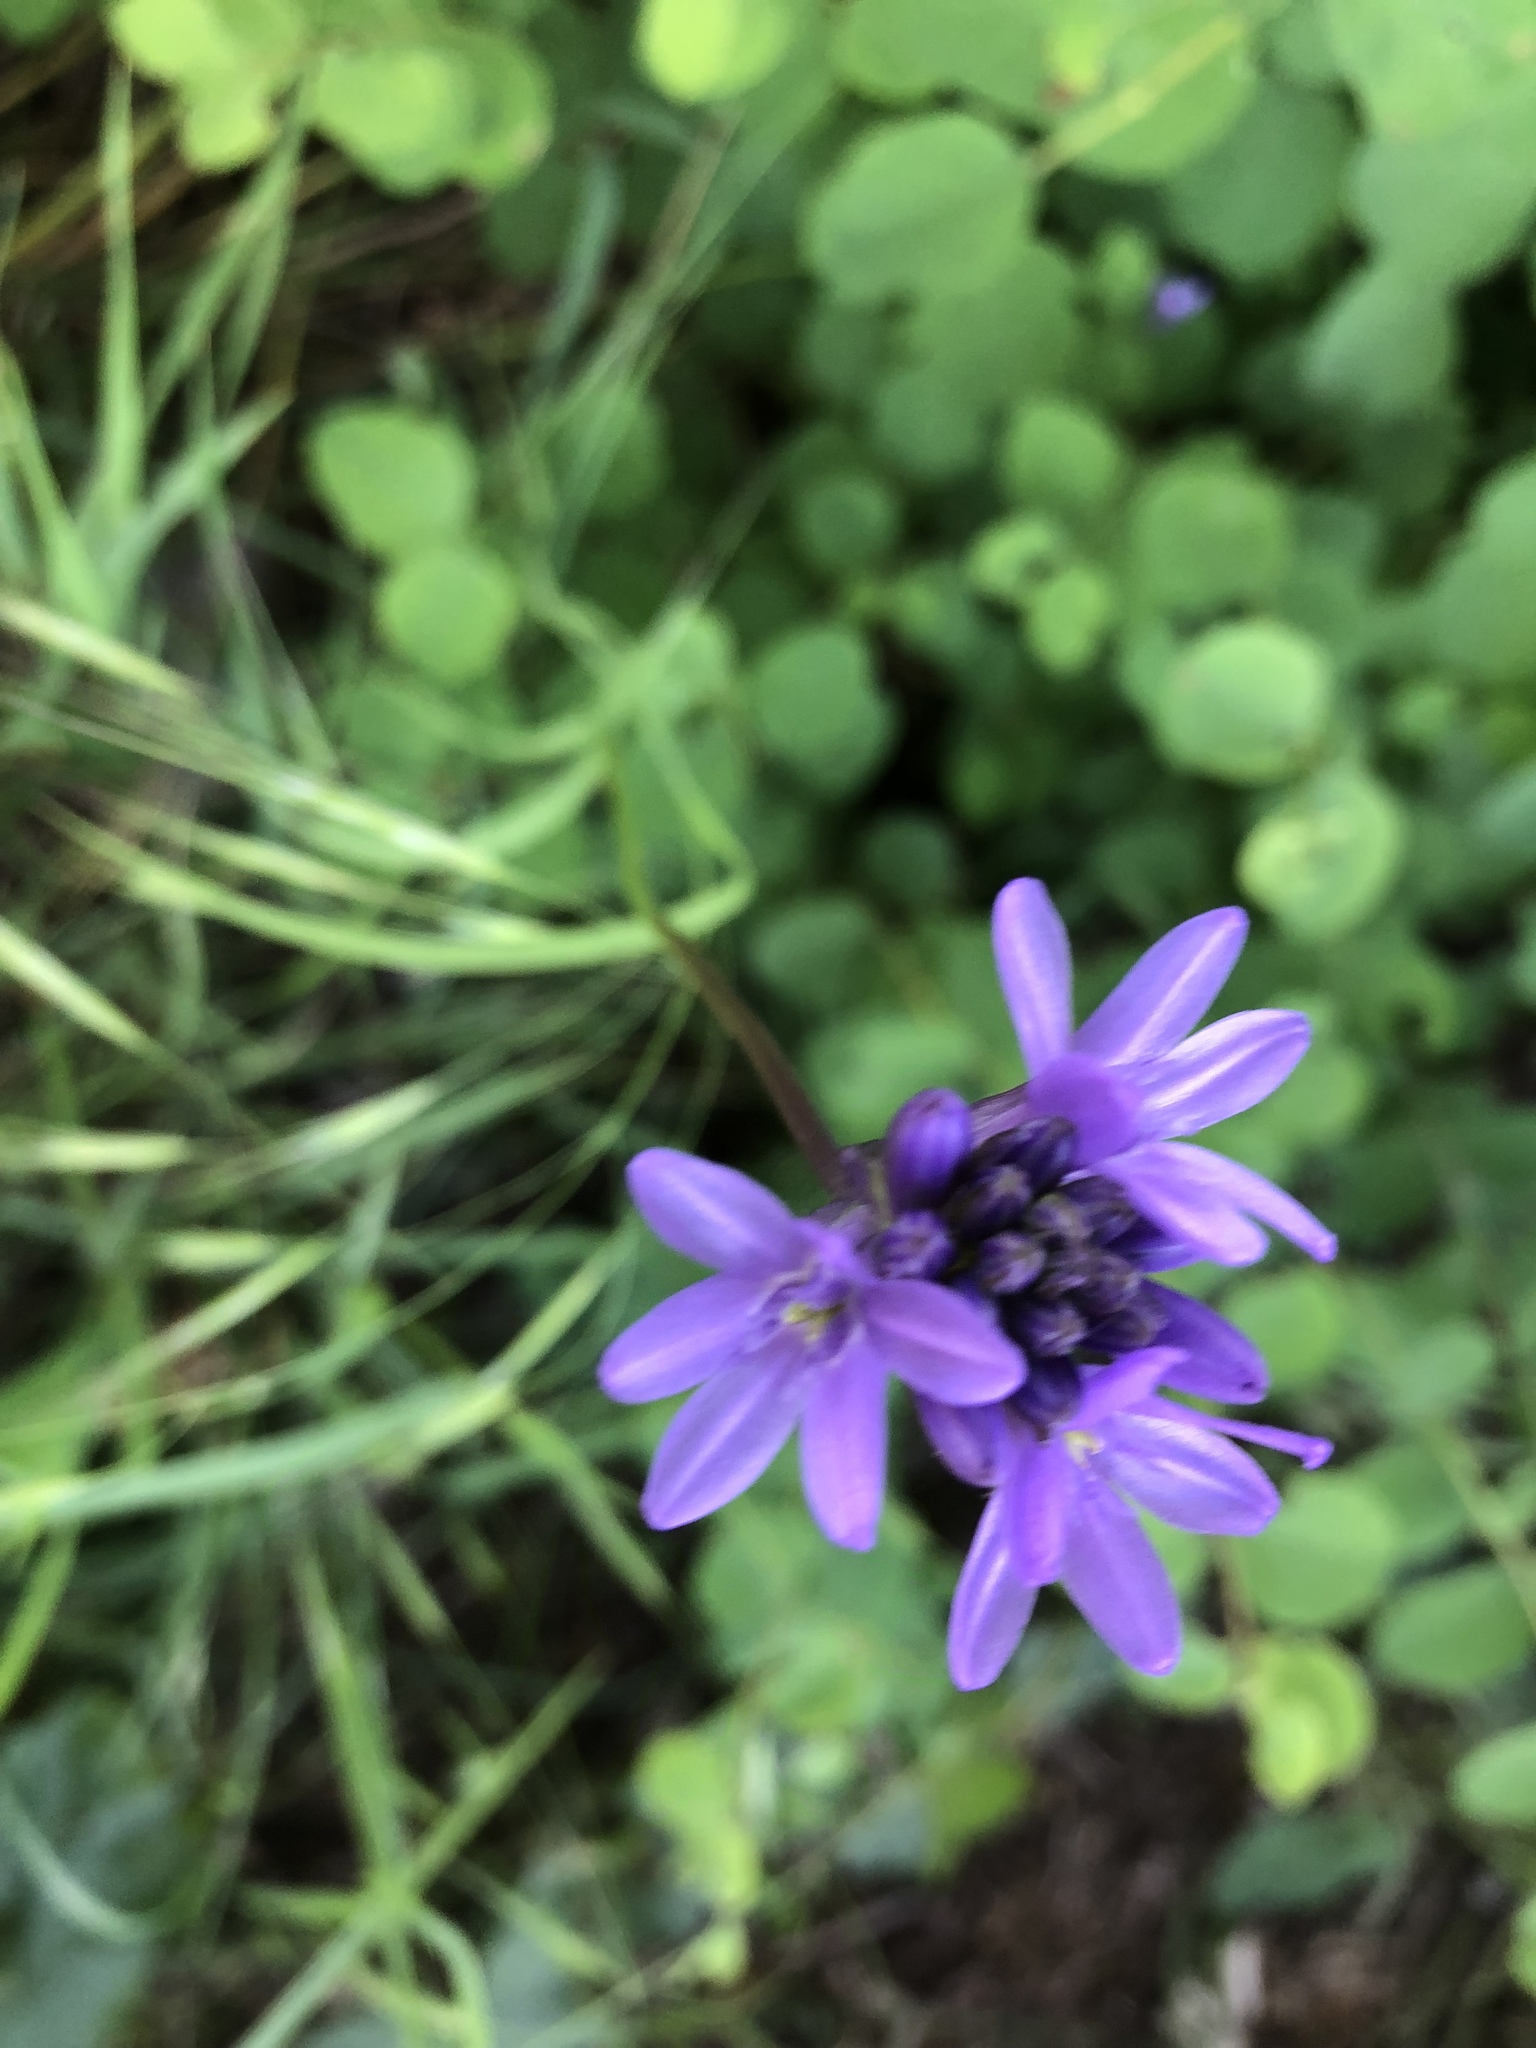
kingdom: Plantae
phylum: Tracheophyta
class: Liliopsida
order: Asparagales
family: Asparagaceae
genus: Dichelostemma
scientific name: Dichelostemma congestum
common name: Fork-tooth ookow
